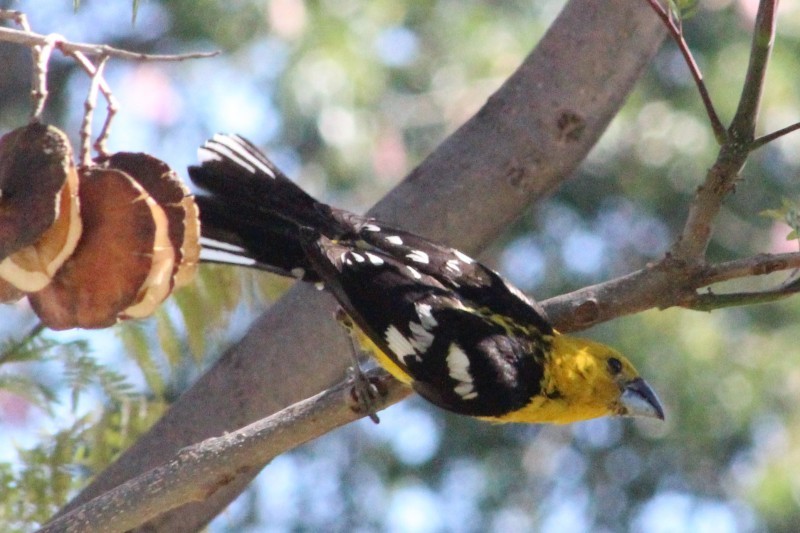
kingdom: Animalia
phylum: Chordata
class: Aves
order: Passeriformes
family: Cardinalidae
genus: Pheucticus
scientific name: Pheucticus chrysogaster
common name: Golden grosbeak
